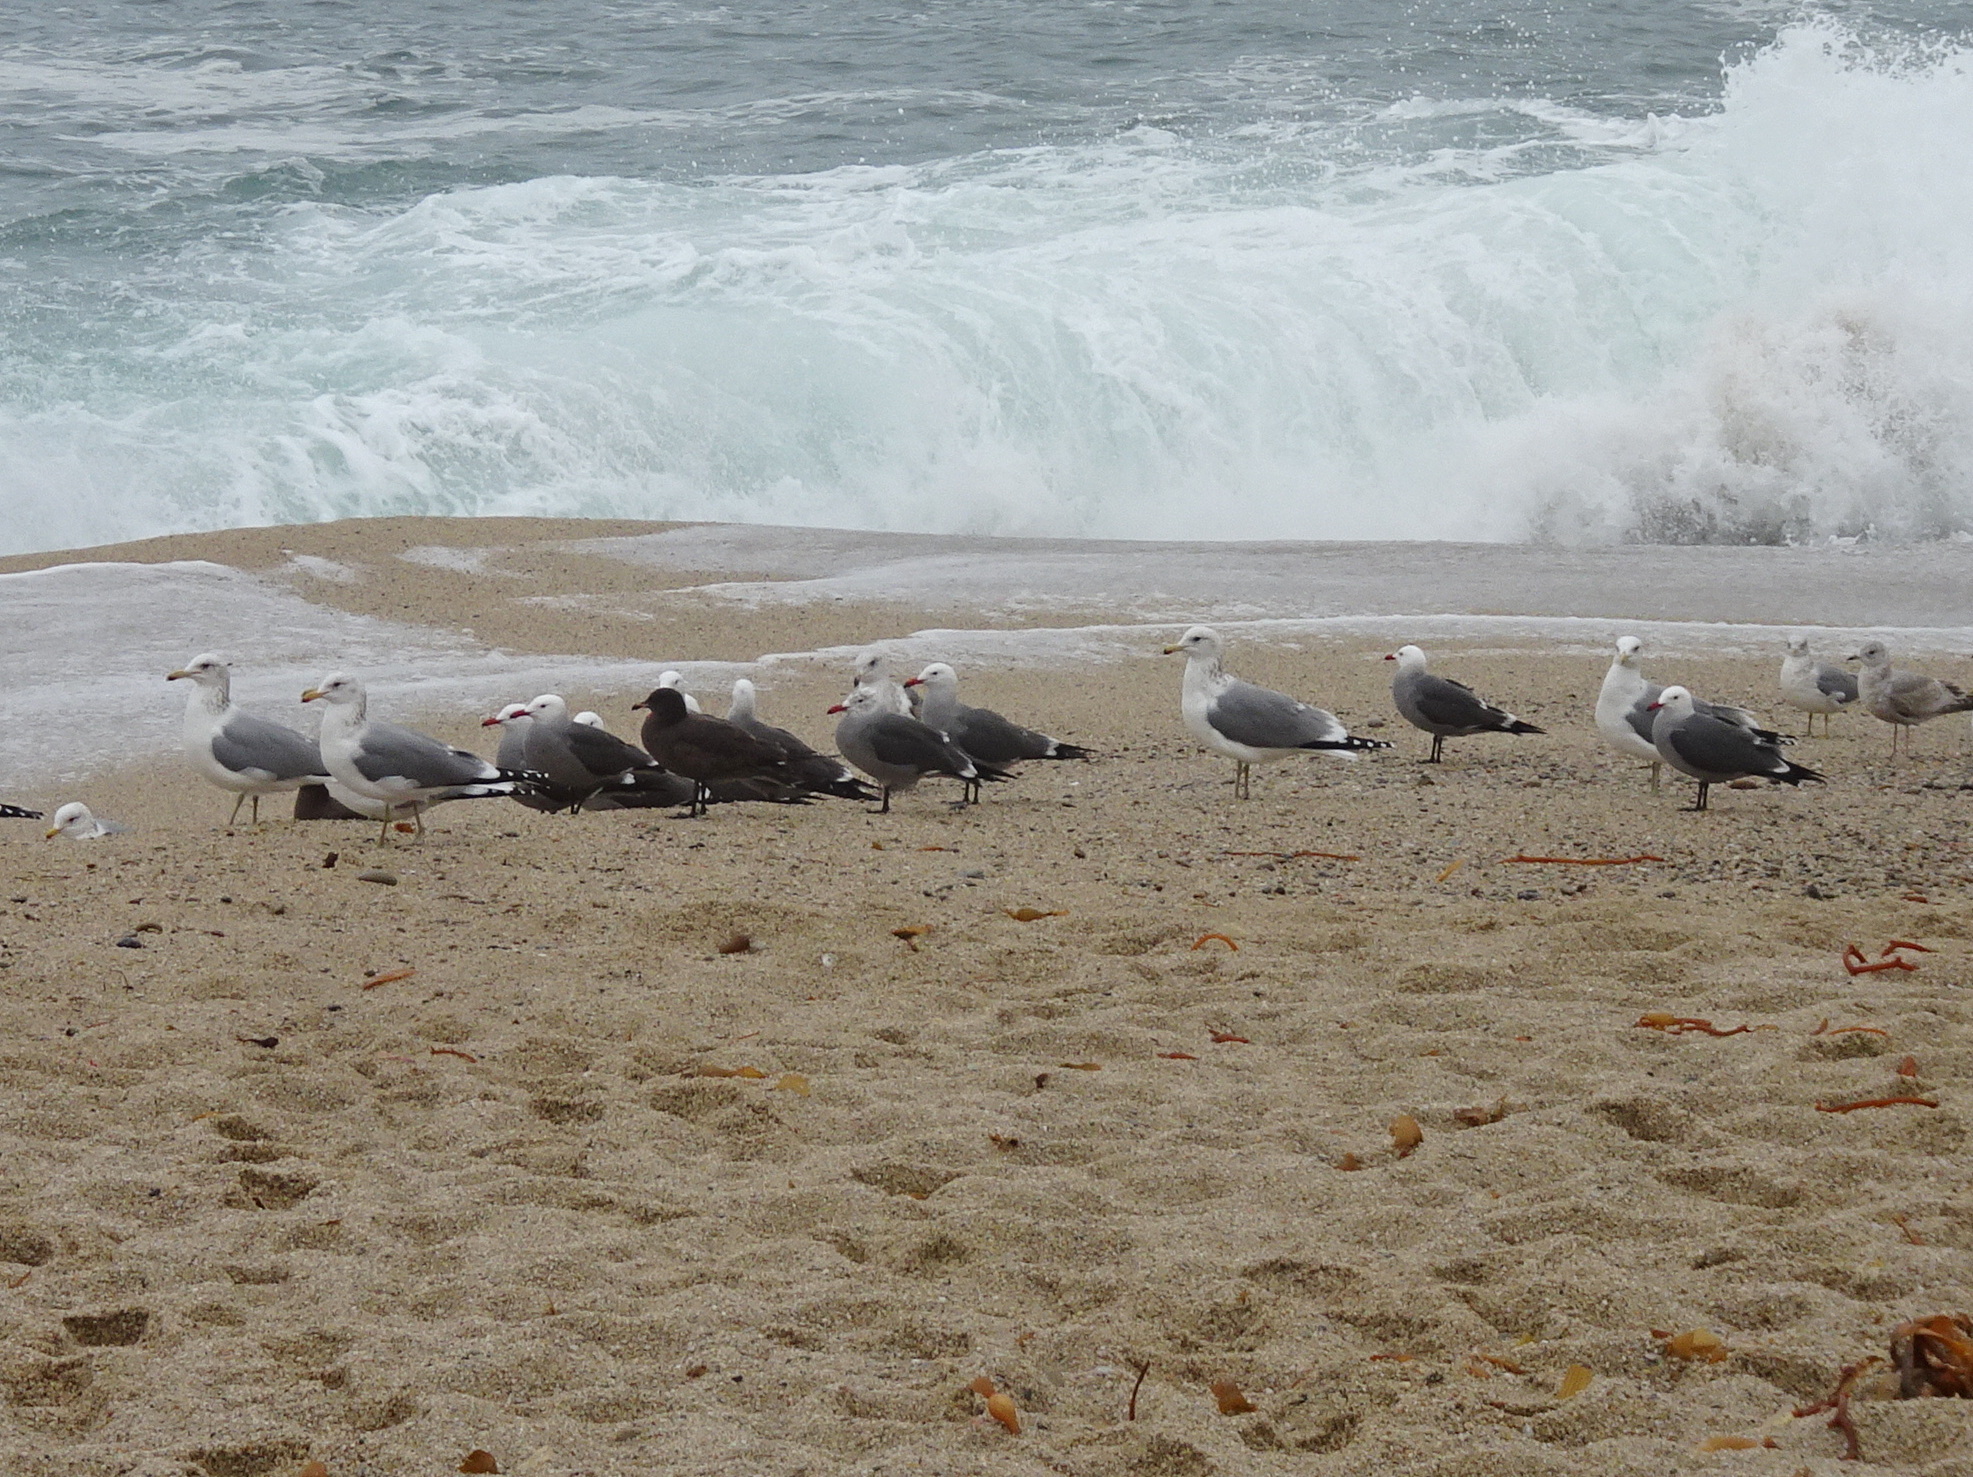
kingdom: Animalia
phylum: Chordata
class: Aves
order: Charadriiformes
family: Laridae
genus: Larus
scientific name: Larus heermanni
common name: Heermann's gull
